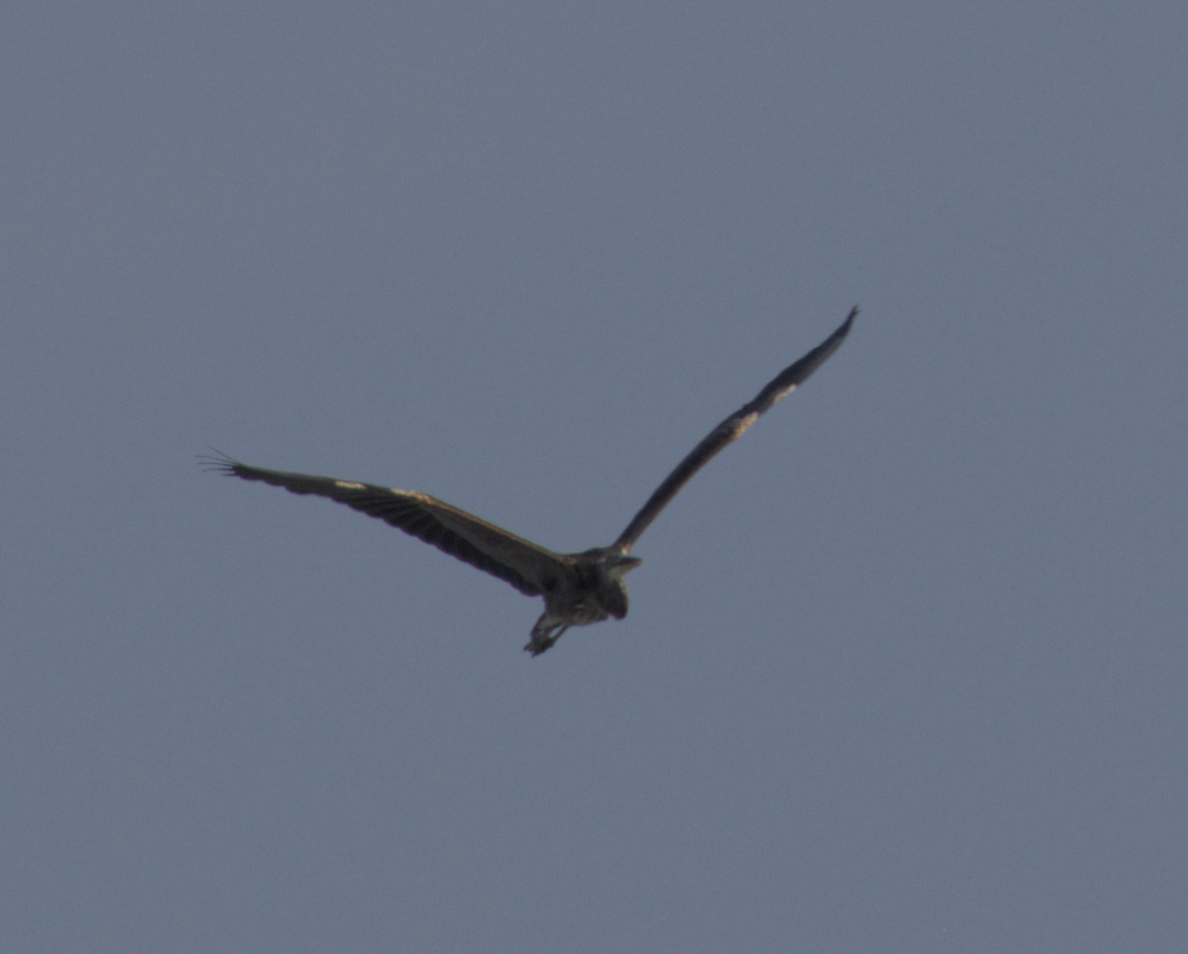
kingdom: Animalia
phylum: Chordata
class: Aves
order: Pelecaniformes
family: Ardeidae
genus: Ardea
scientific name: Ardea herodias
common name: Great blue heron
